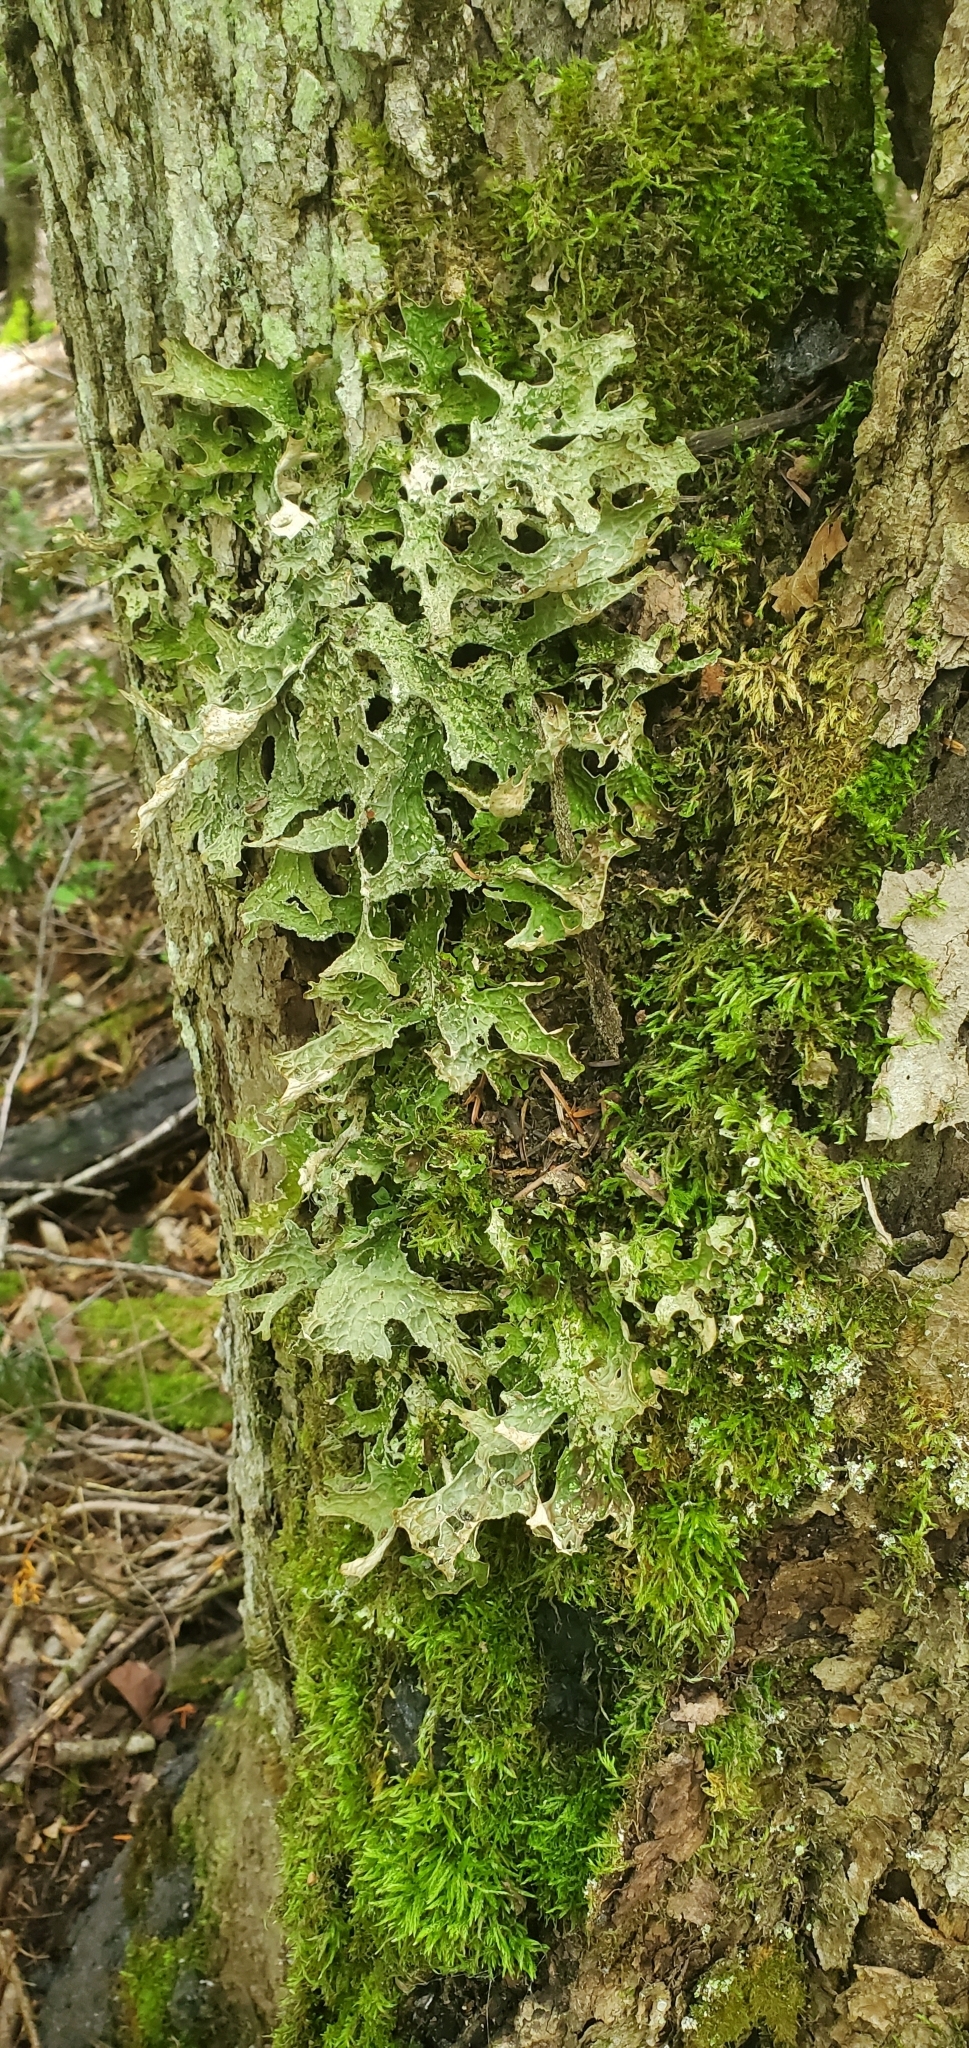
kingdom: Fungi
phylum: Ascomycota
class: Lecanoromycetes
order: Peltigerales
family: Lobariaceae
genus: Lobaria
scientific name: Lobaria pulmonaria
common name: Lungwort
